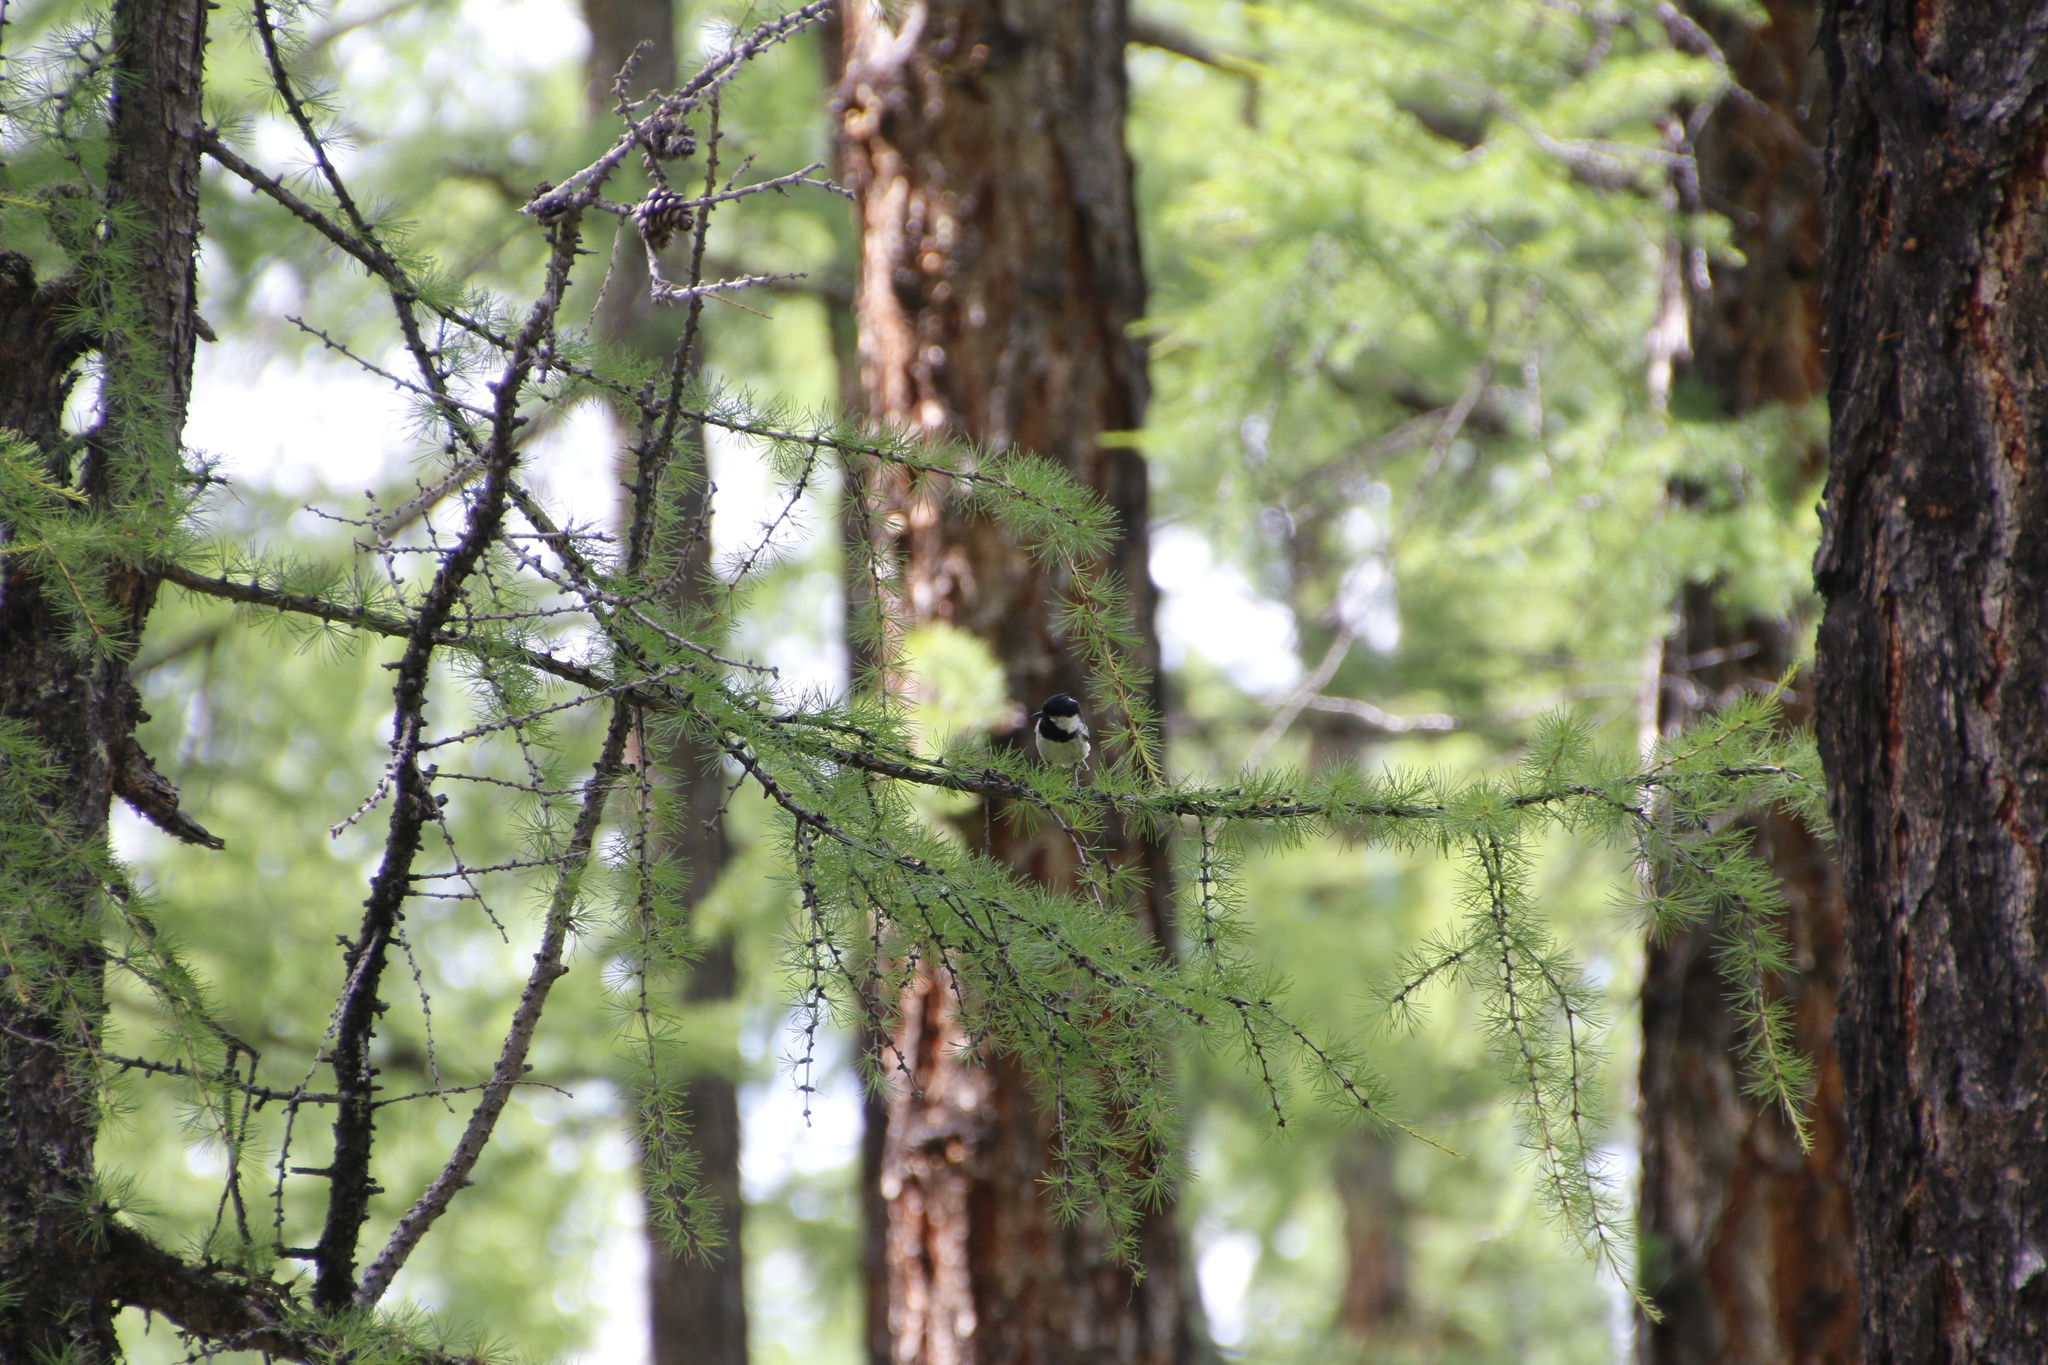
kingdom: Animalia
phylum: Chordata
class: Aves
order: Passeriformes
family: Paridae
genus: Periparus
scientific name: Periparus ater
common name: Coal tit
